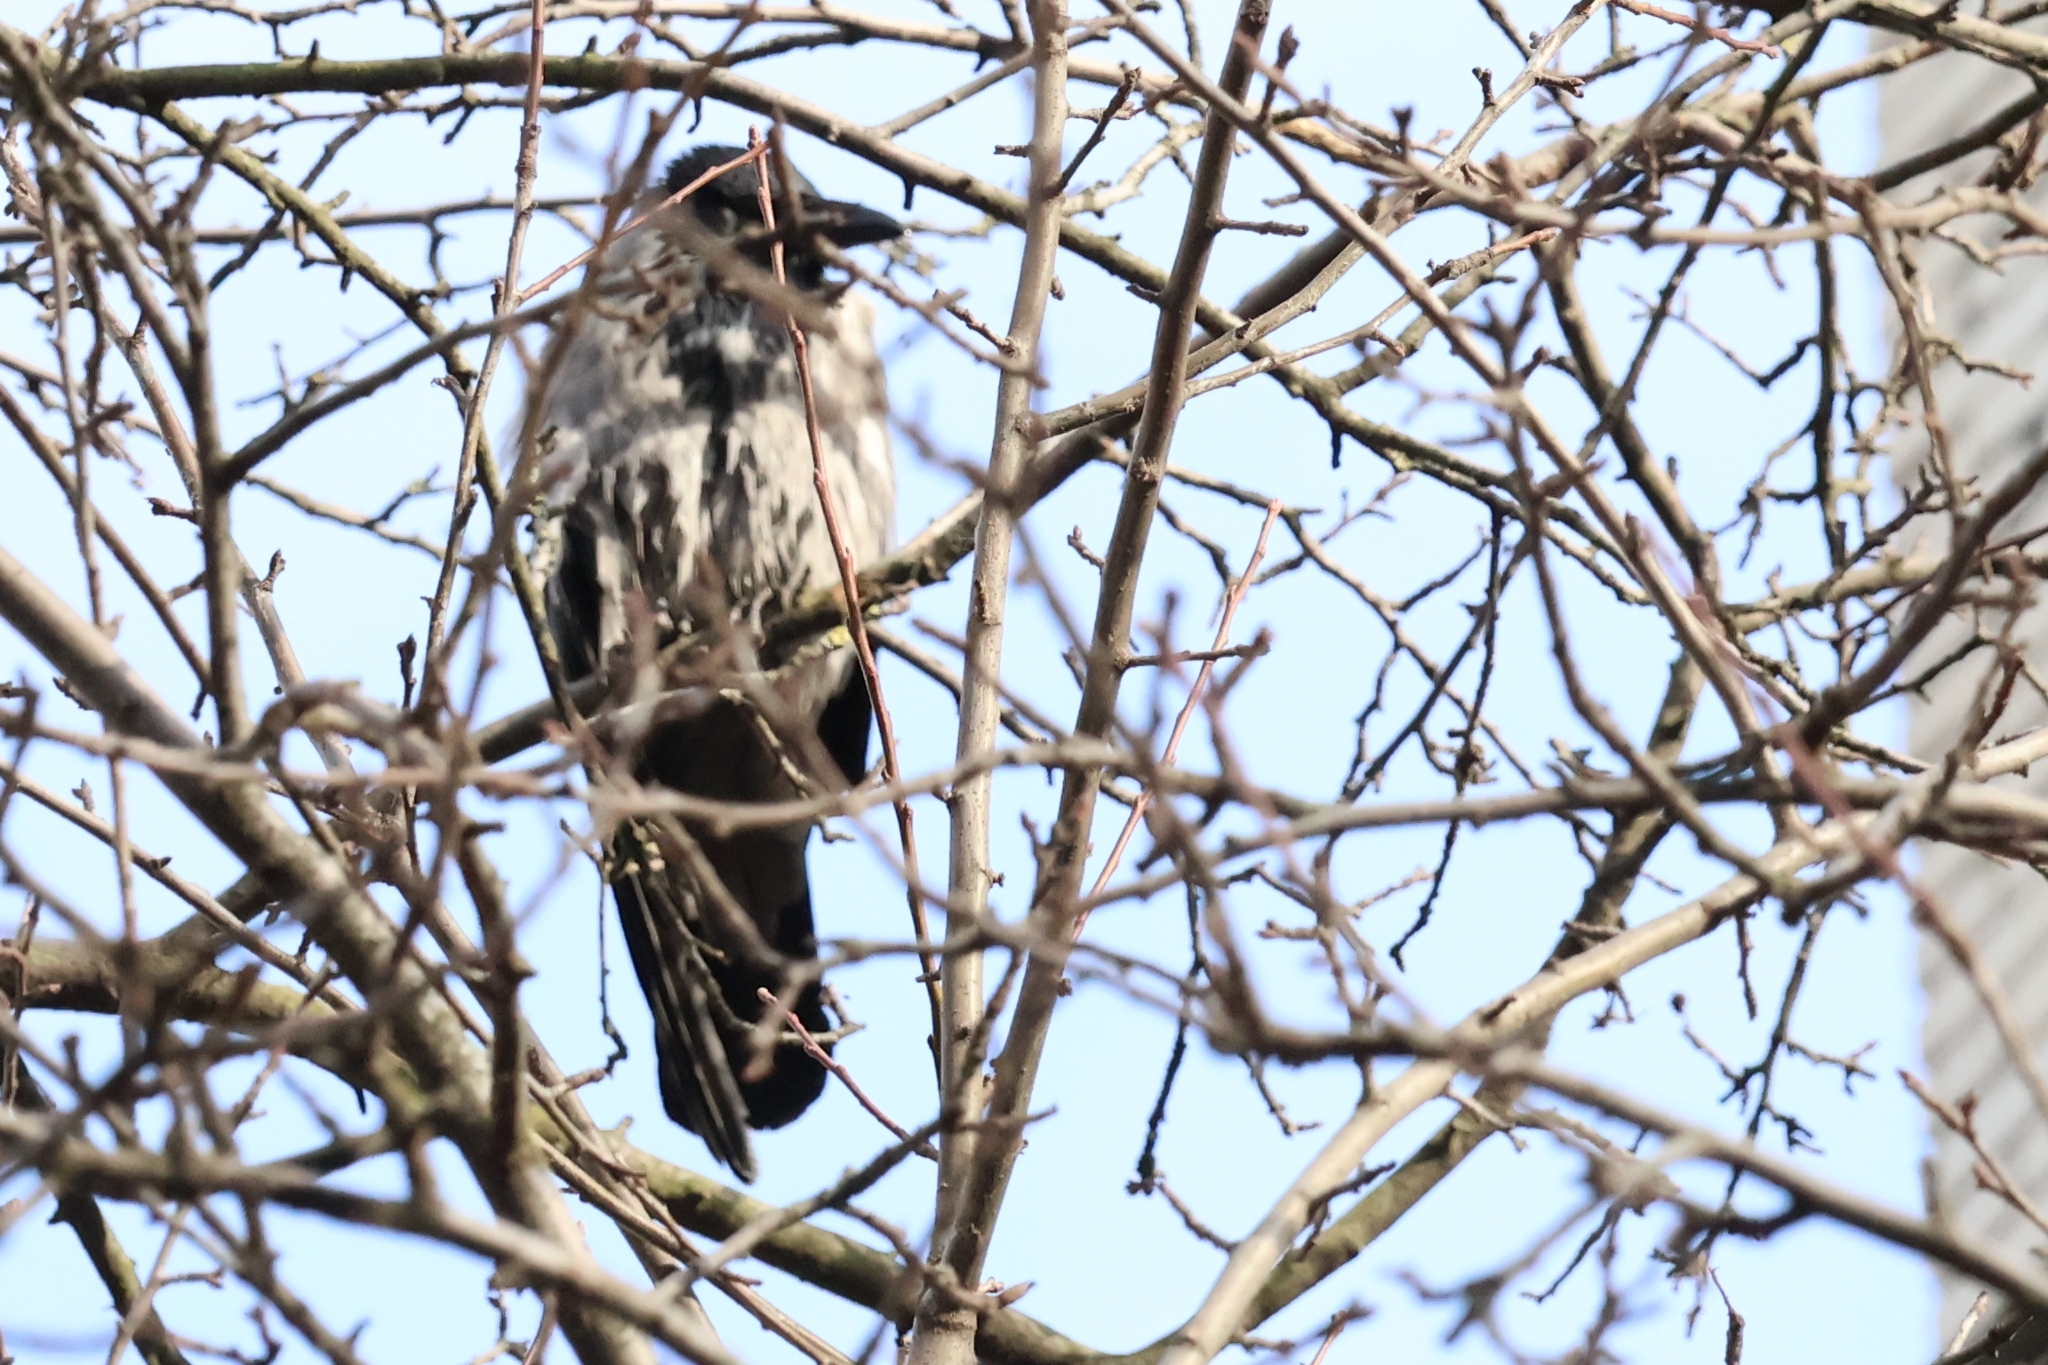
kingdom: Animalia
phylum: Chordata
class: Aves
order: Passeriformes
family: Corvidae
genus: Corvus
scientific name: Corvus cornix
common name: Hooded crow
